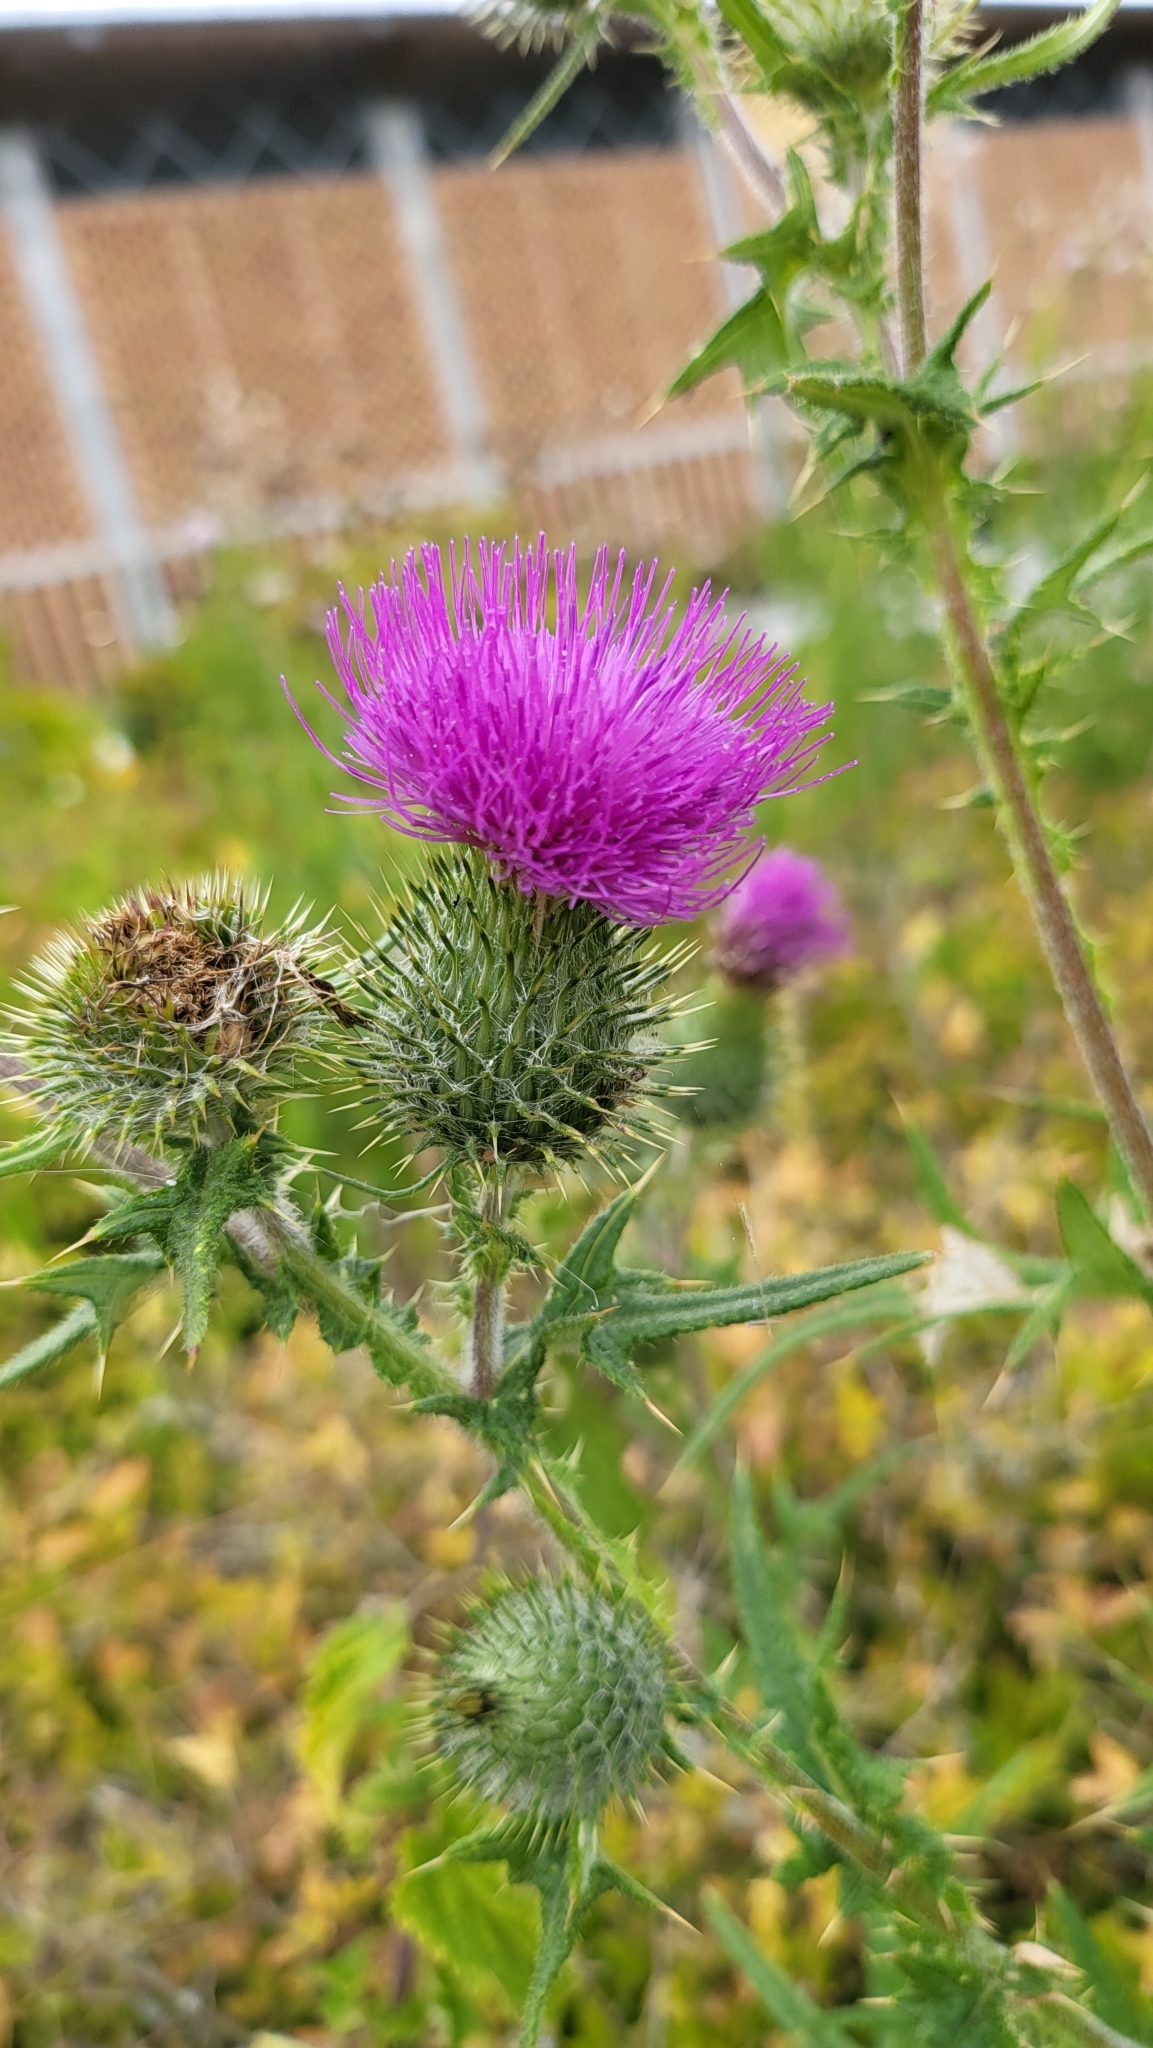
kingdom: Plantae
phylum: Tracheophyta
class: Magnoliopsida
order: Asterales
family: Asteraceae
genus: Cirsium
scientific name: Cirsium vulgare
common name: Bull thistle
